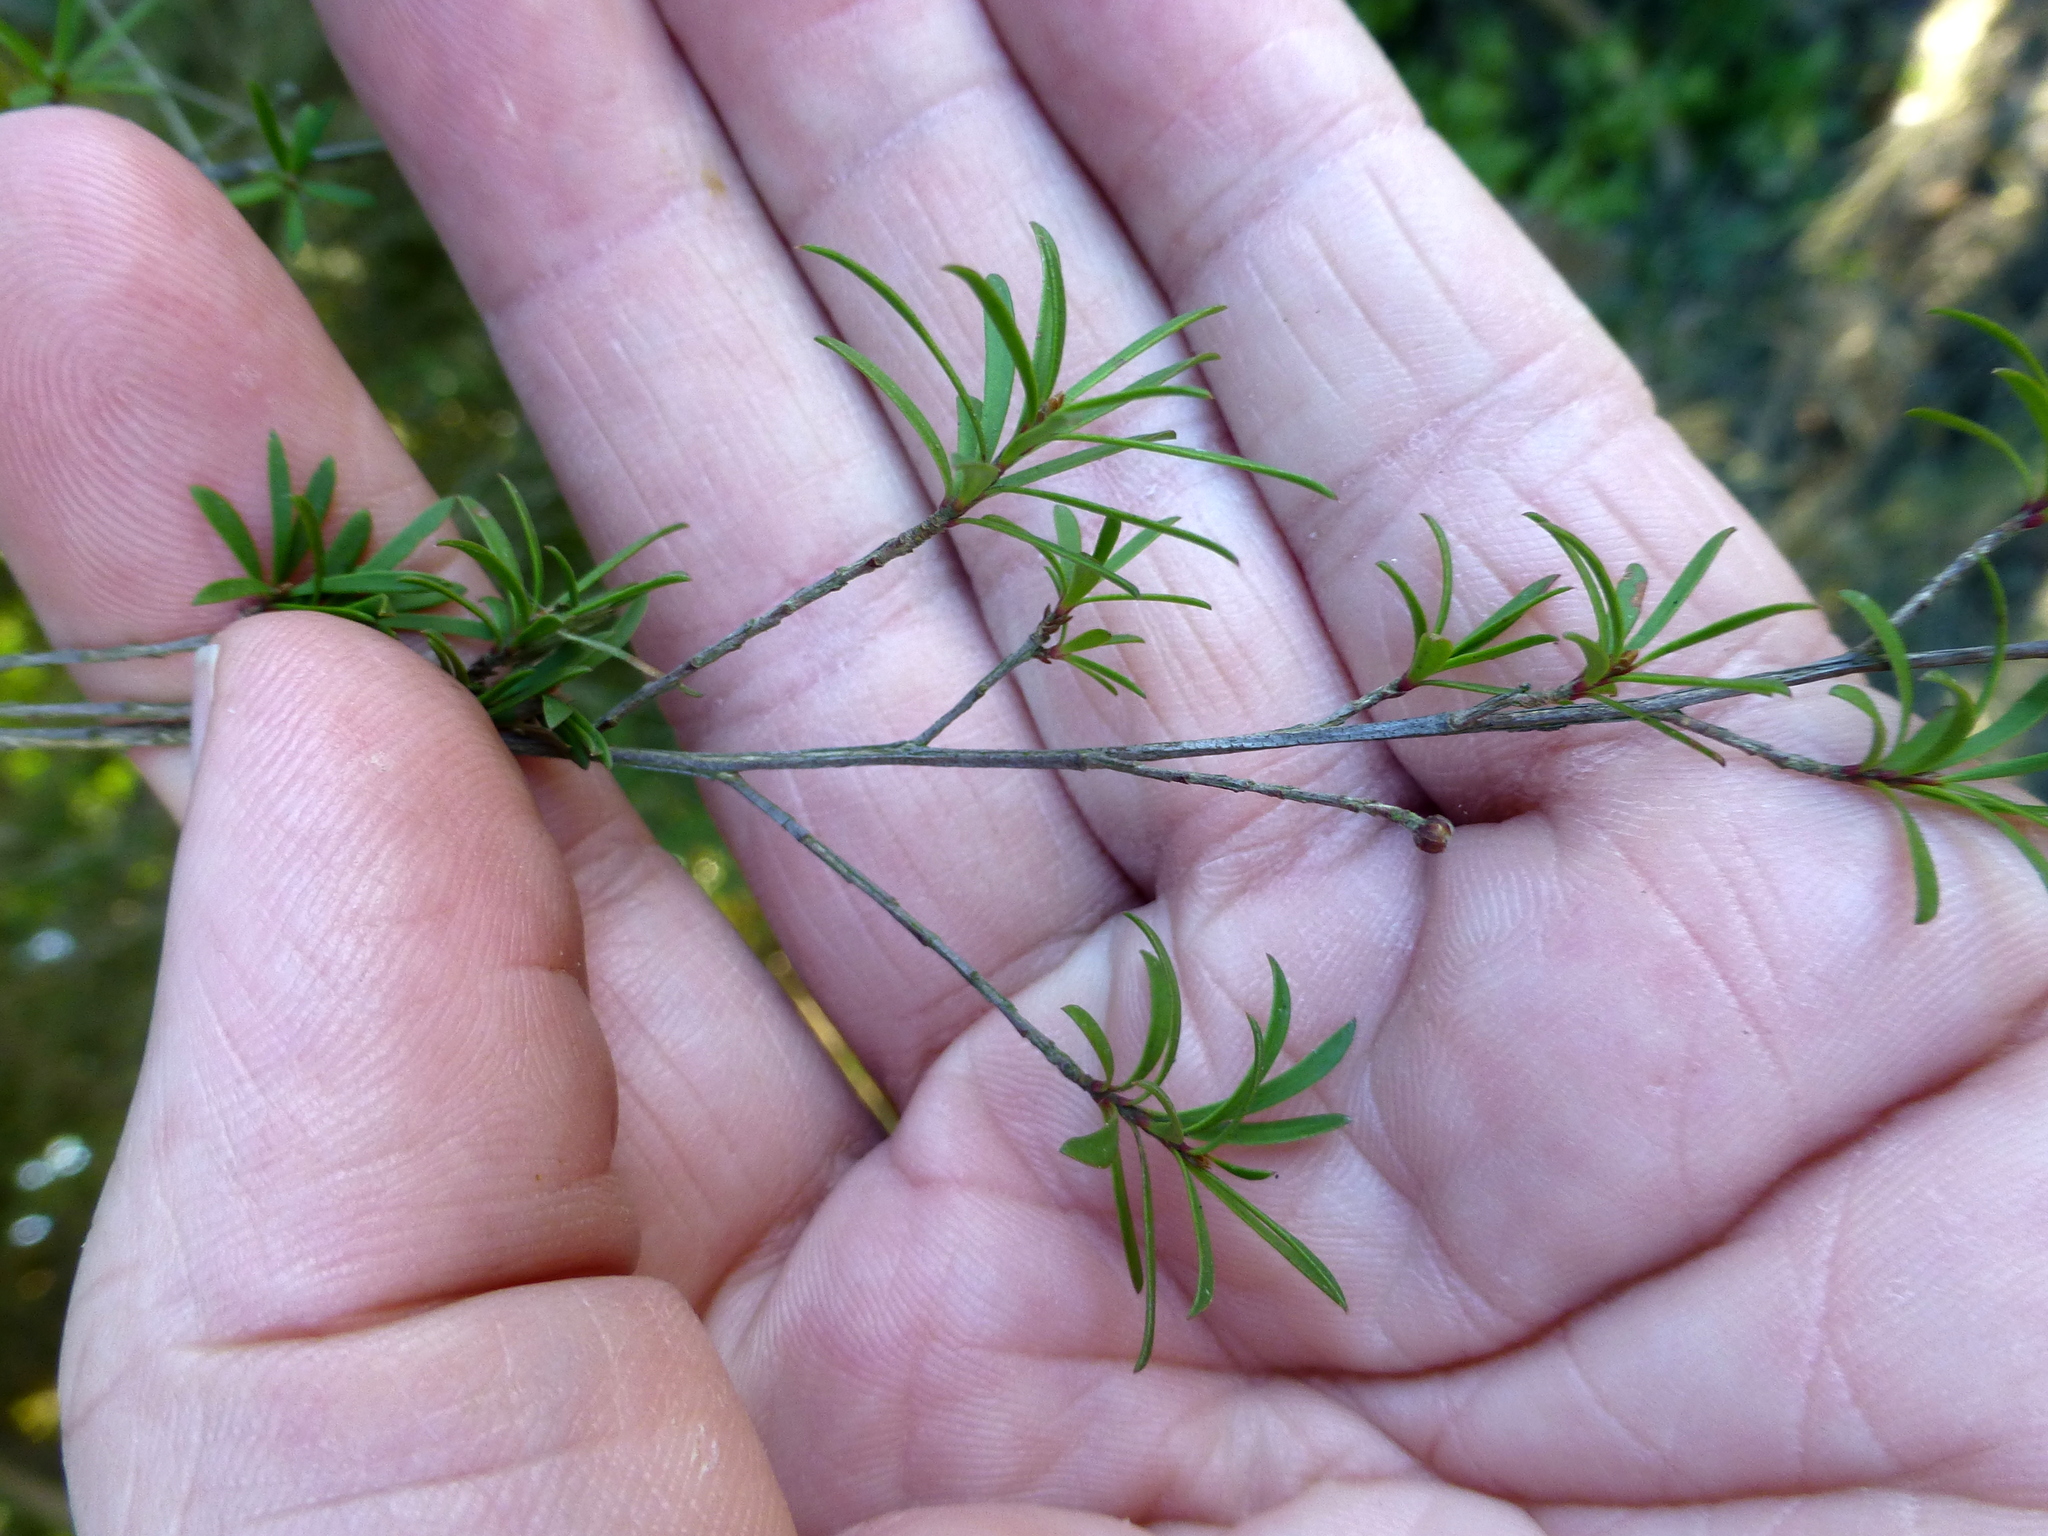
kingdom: Plantae
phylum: Tracheophyta
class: Magnoliopsida
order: Myrtales
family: Myrtaceae
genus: Kunzea
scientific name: Kunzea robusta
